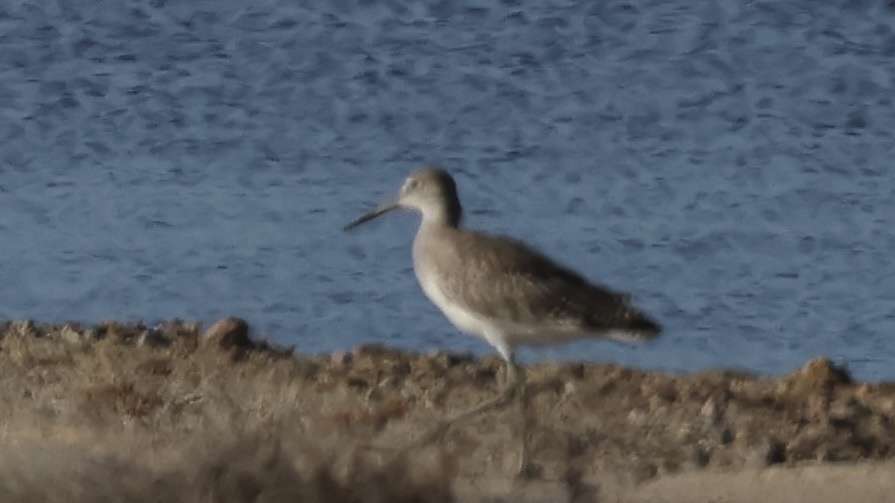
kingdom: Animalia
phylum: Chordata
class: Aves
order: Charadriiformes
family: Scolopacidae
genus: Tringa
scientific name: Tringa semipalmata
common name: Willet
